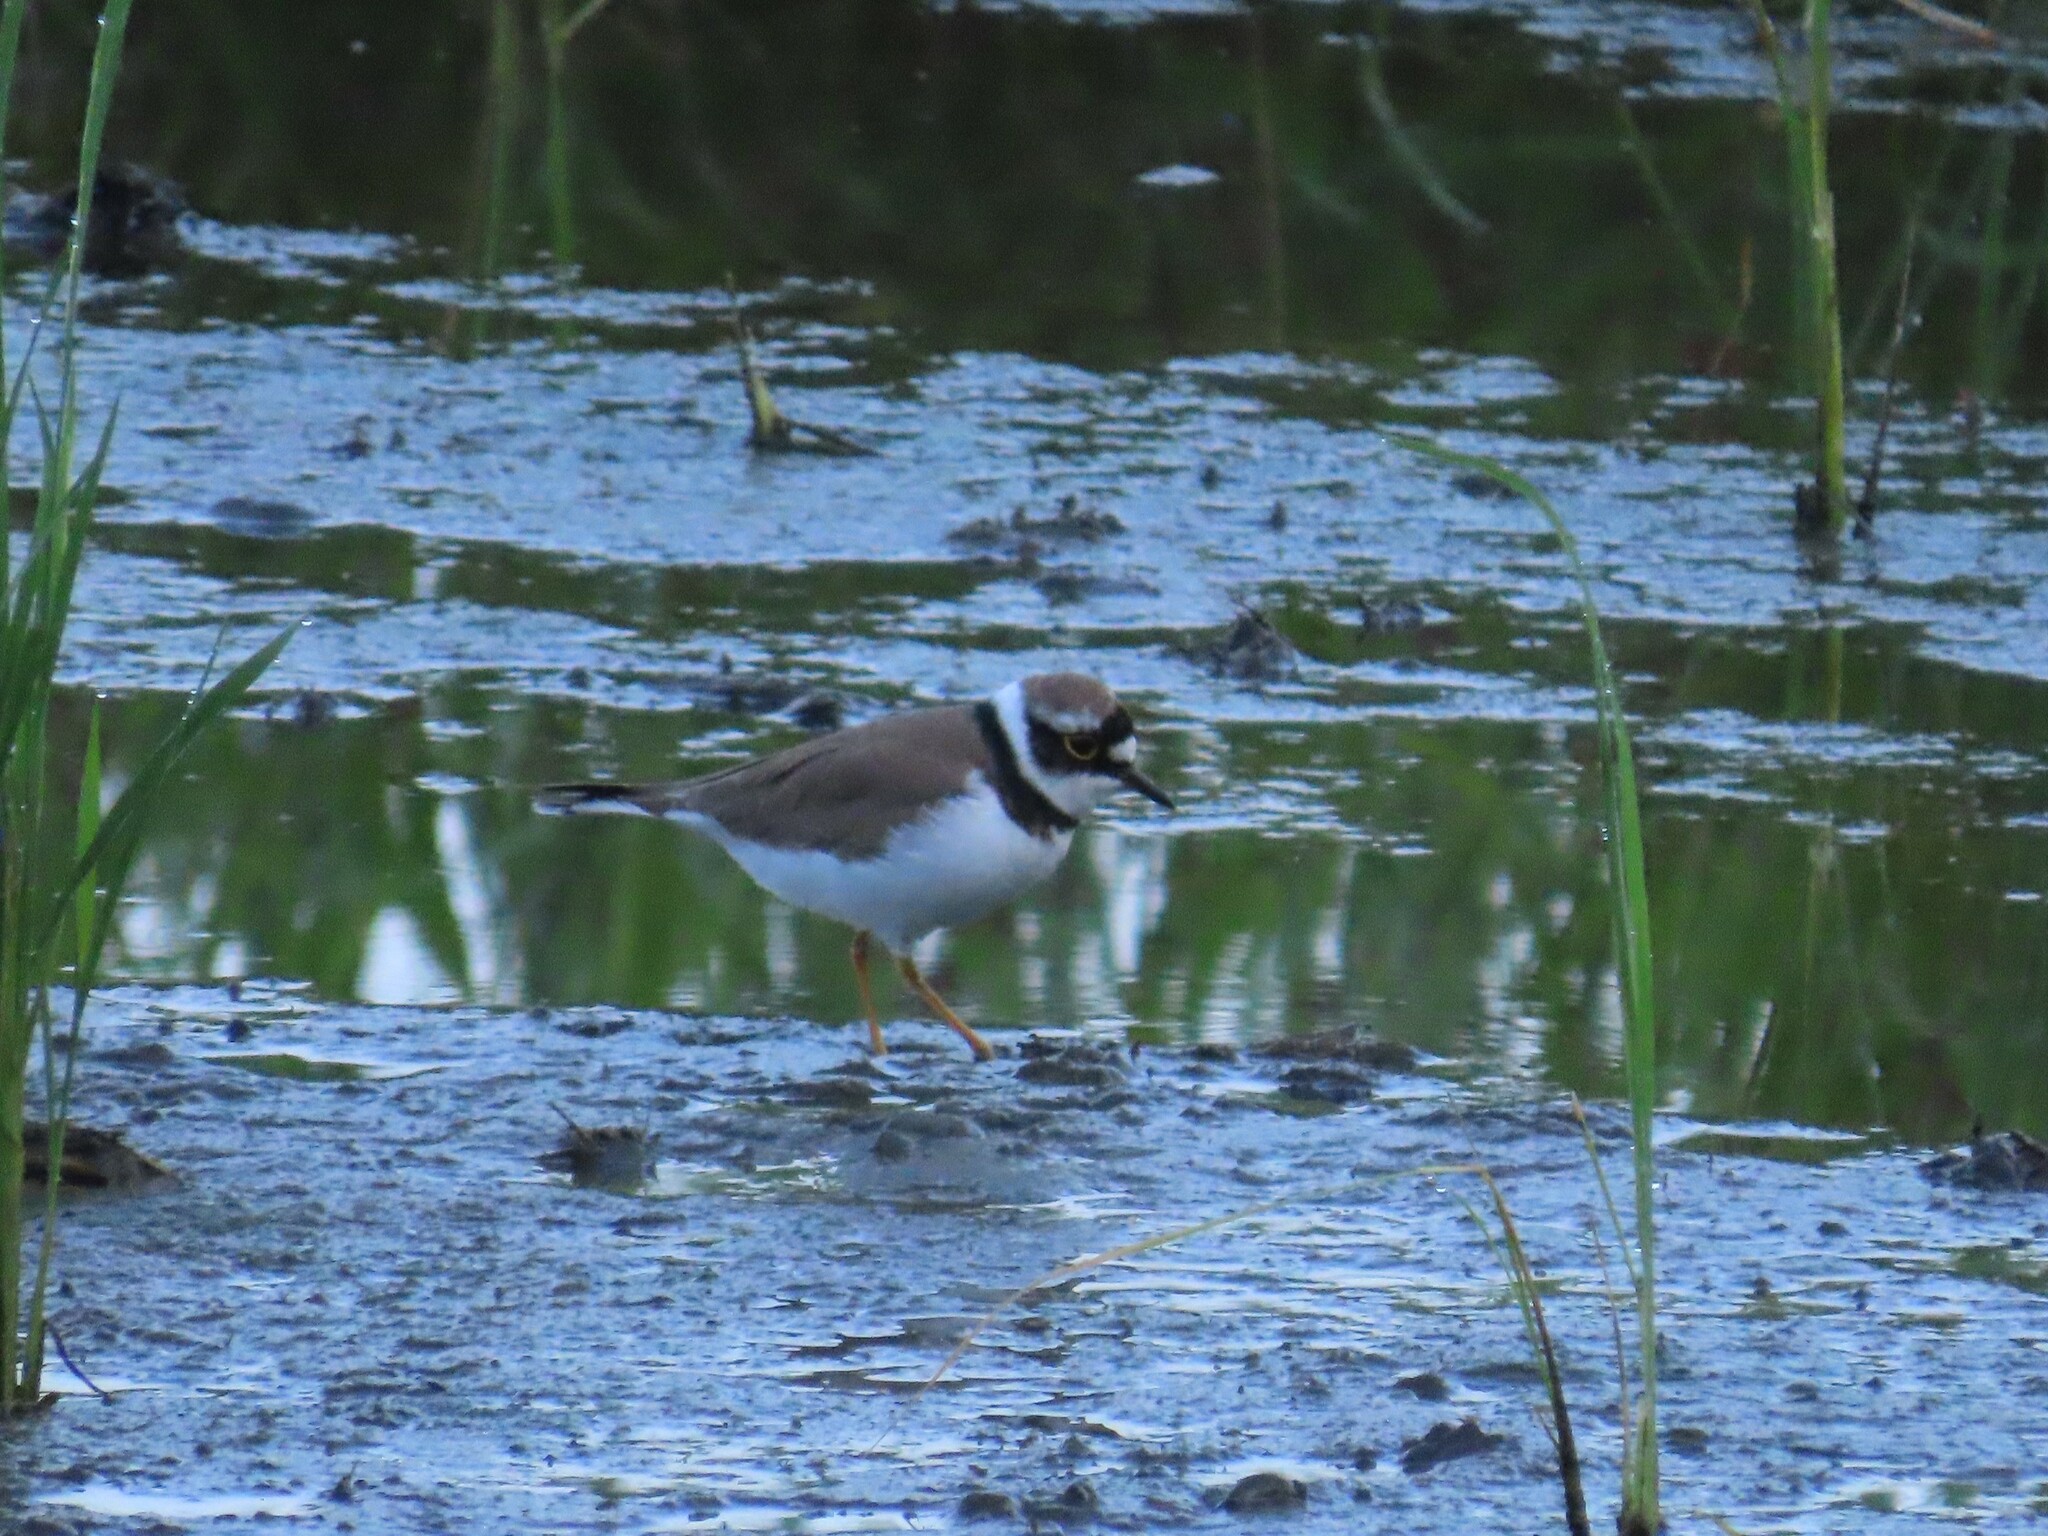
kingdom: Animalia
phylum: Chordata
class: Aves
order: Charadriiformes
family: Charadriidae
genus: Charadrius
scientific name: Charadrius dubius
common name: Little ringed plover
